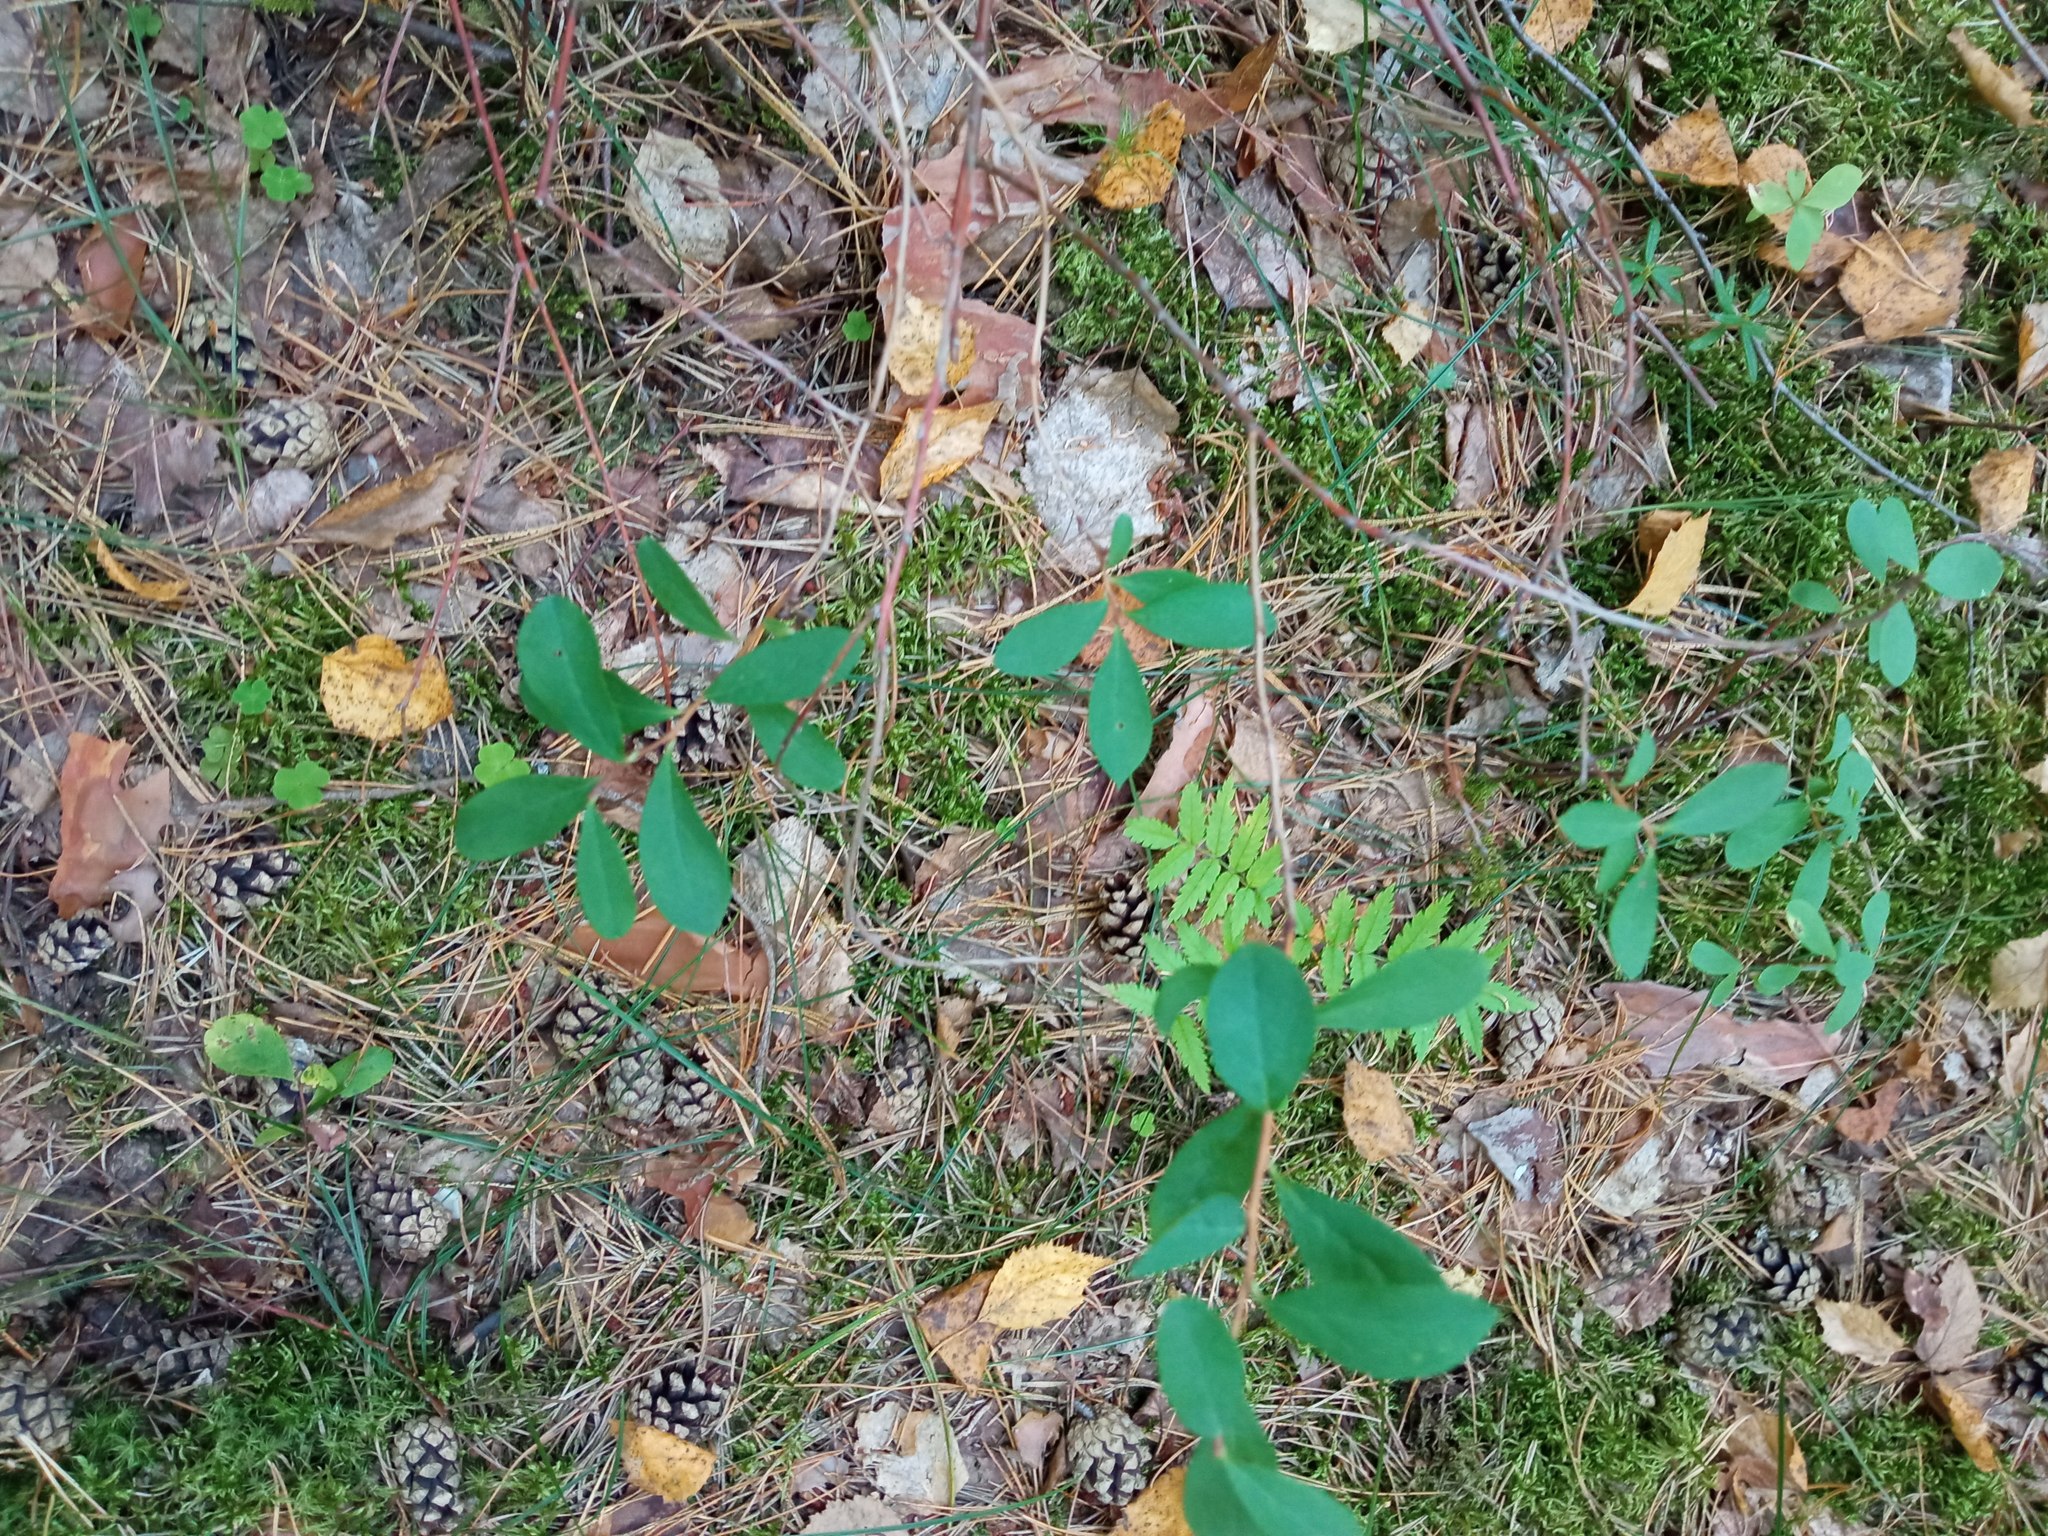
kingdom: Plantae
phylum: Tracheophyta
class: Magnoliopsida
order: Ericales
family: Ericaceae
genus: Vaccinium
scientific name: Vaccinium uliginosum
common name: Bog bilberry
